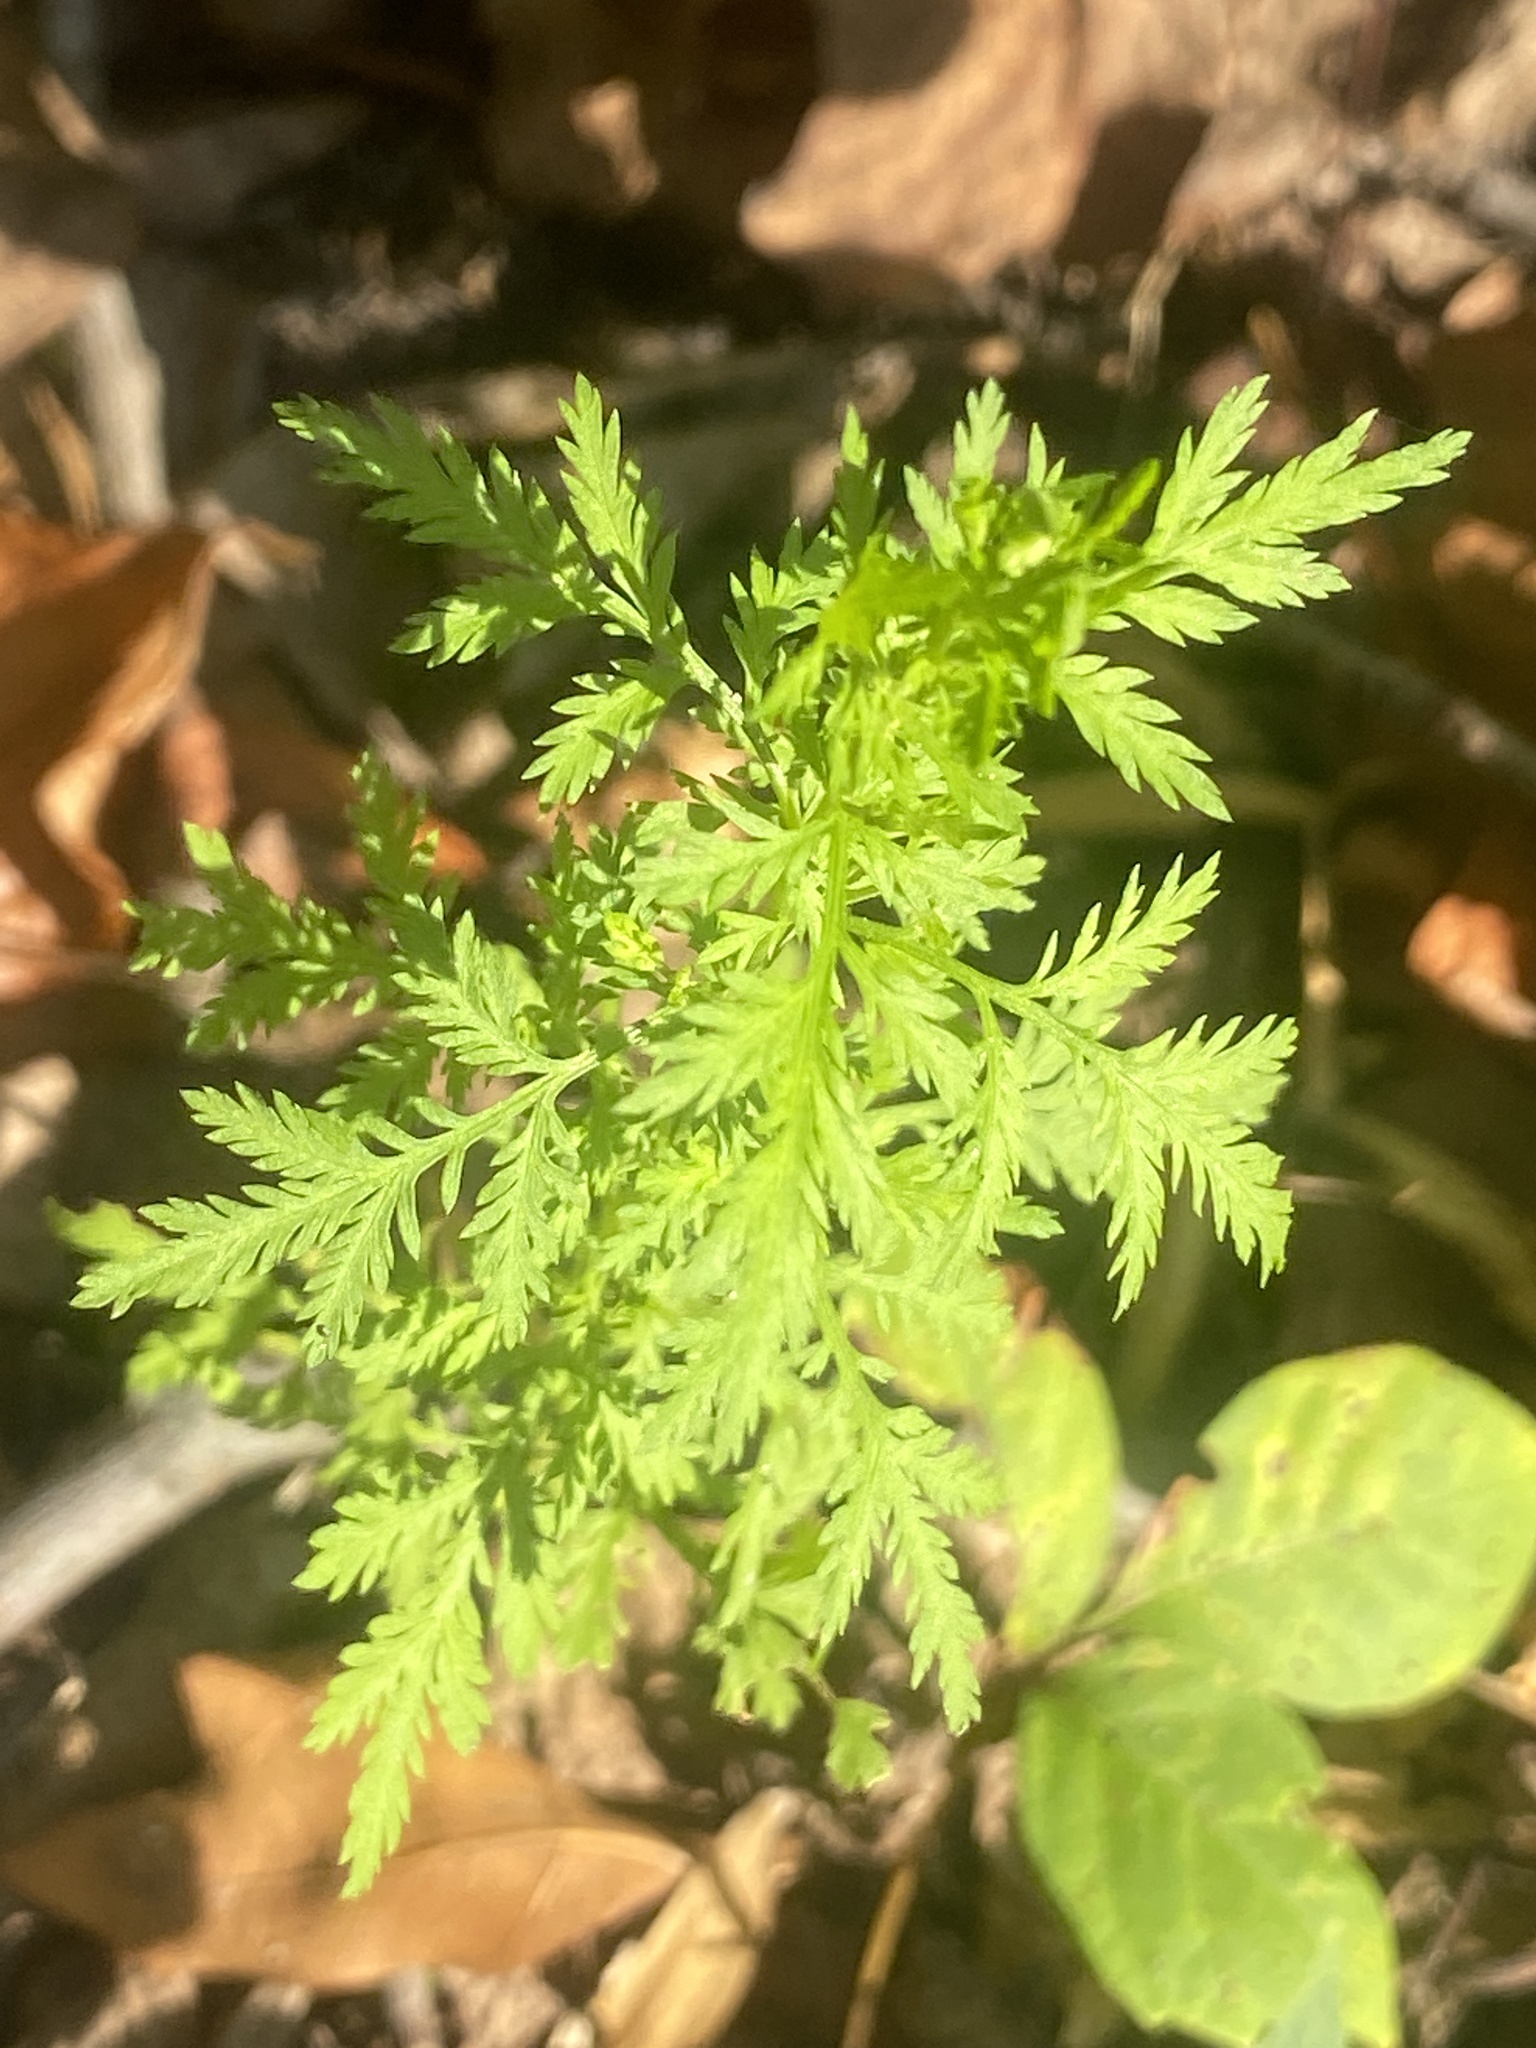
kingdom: Plantae
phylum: Tracheophyta
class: Magnoliopsida
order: Asterales
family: Asteraceae
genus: Artemisia
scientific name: Artemisia annua
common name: Sweet sagewort
